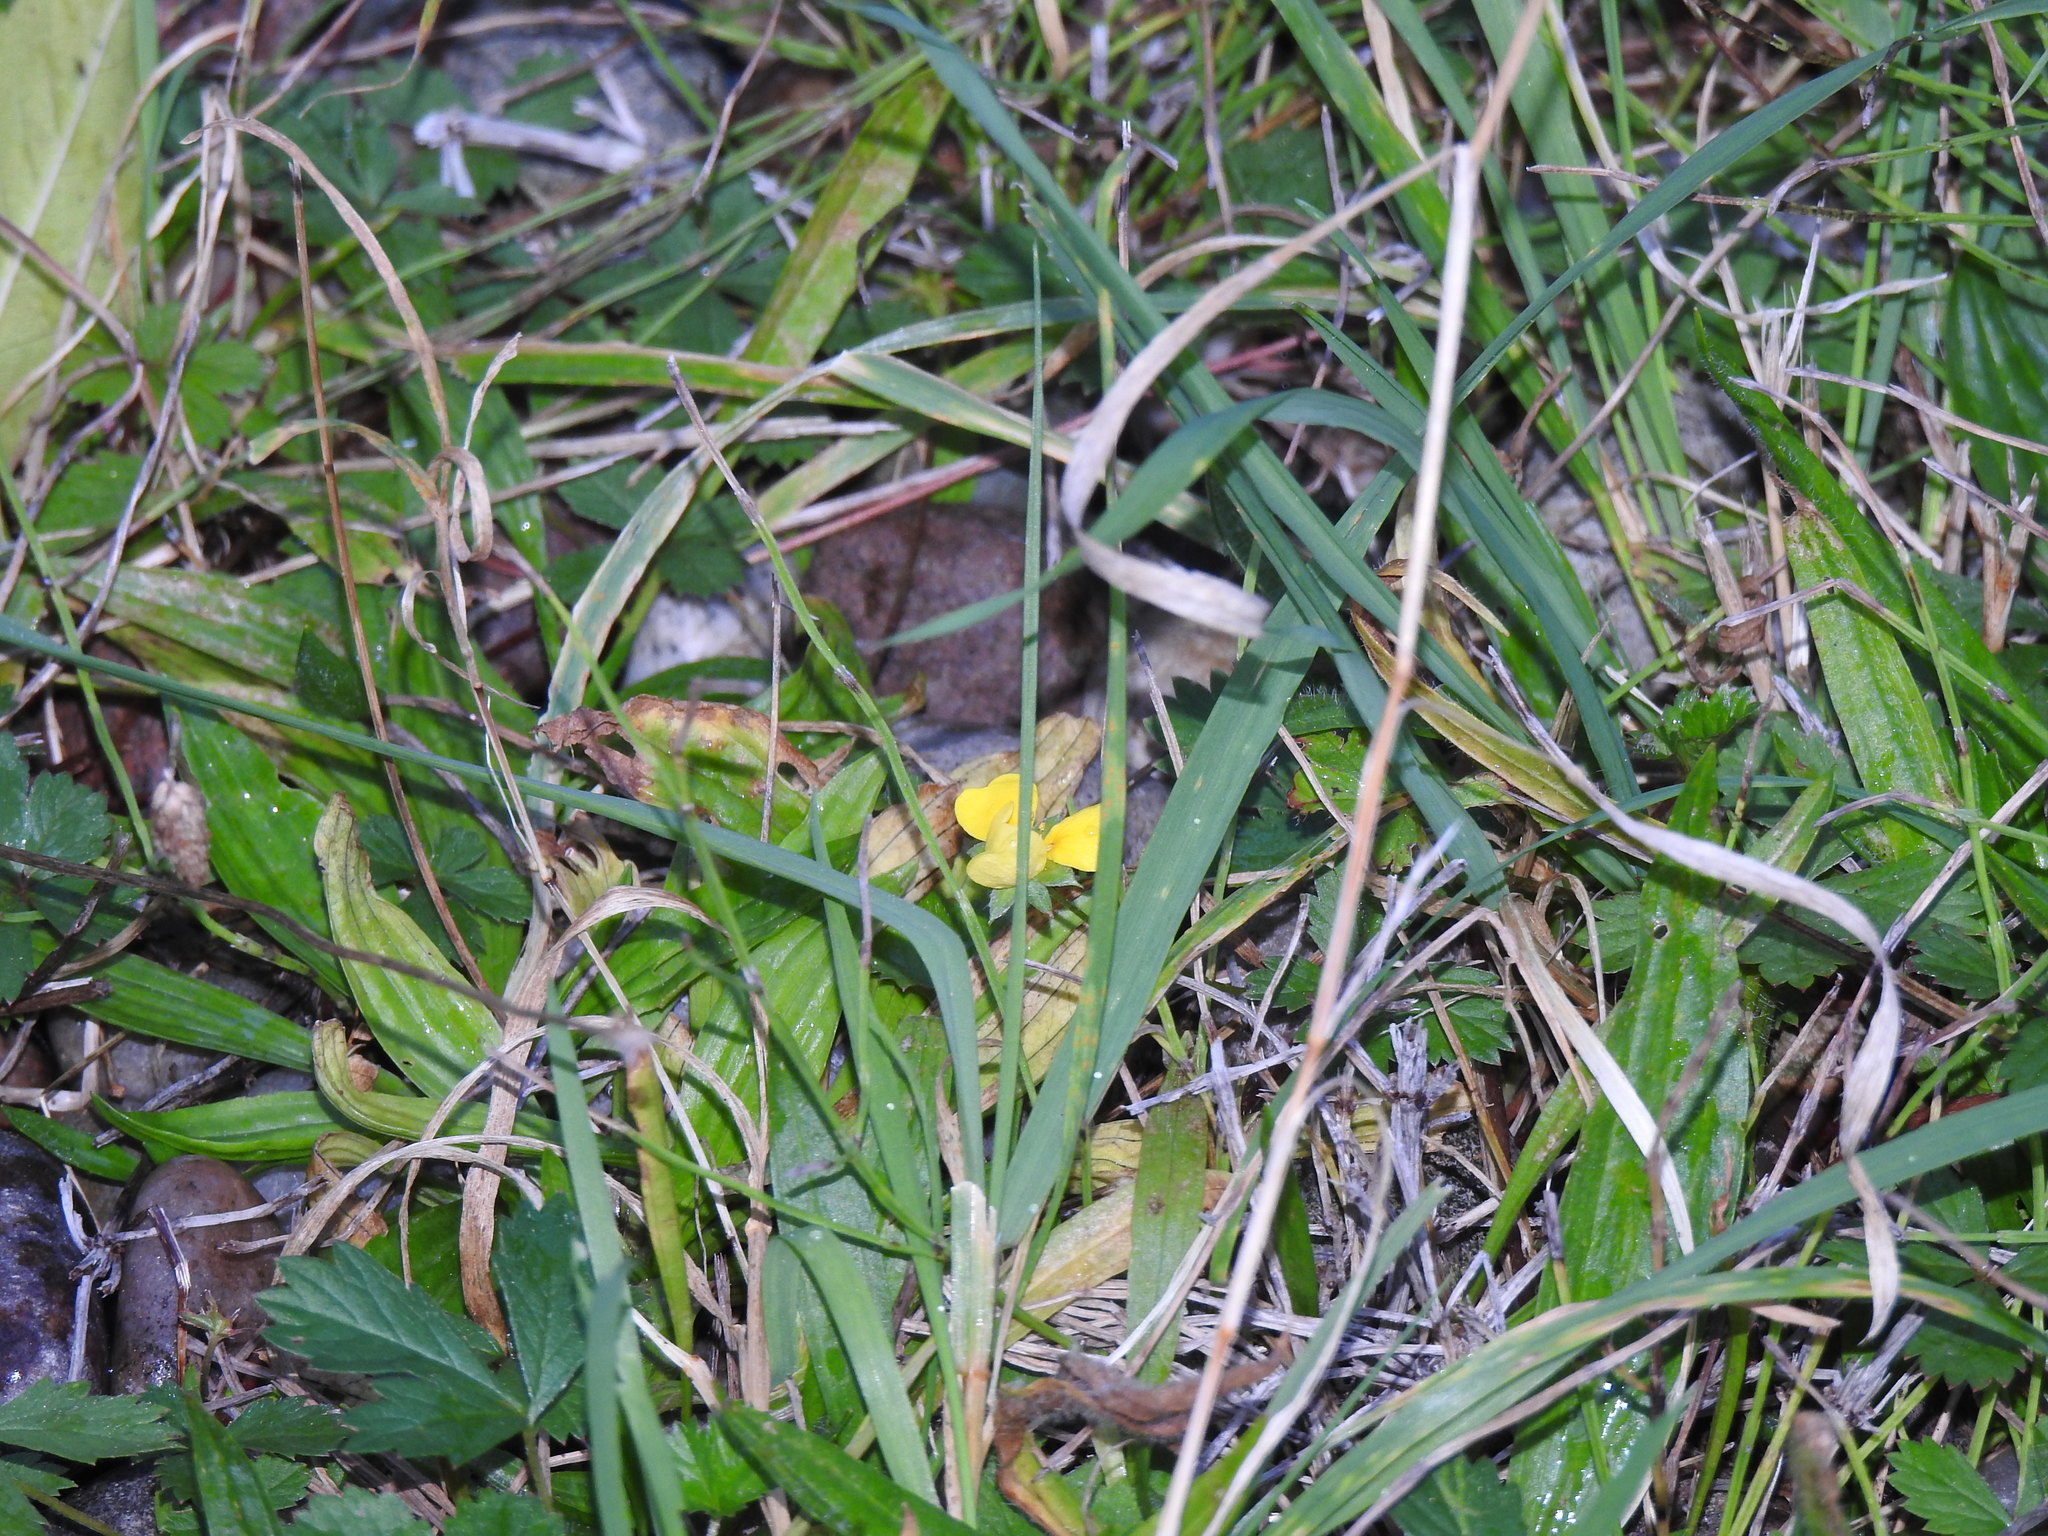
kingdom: Plantae
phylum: Tracheophyta
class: Magnoliopsida
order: Rosales
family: Rosaceae
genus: Potentilla
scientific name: Potentilla reptans
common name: Creeping cinquefoil
